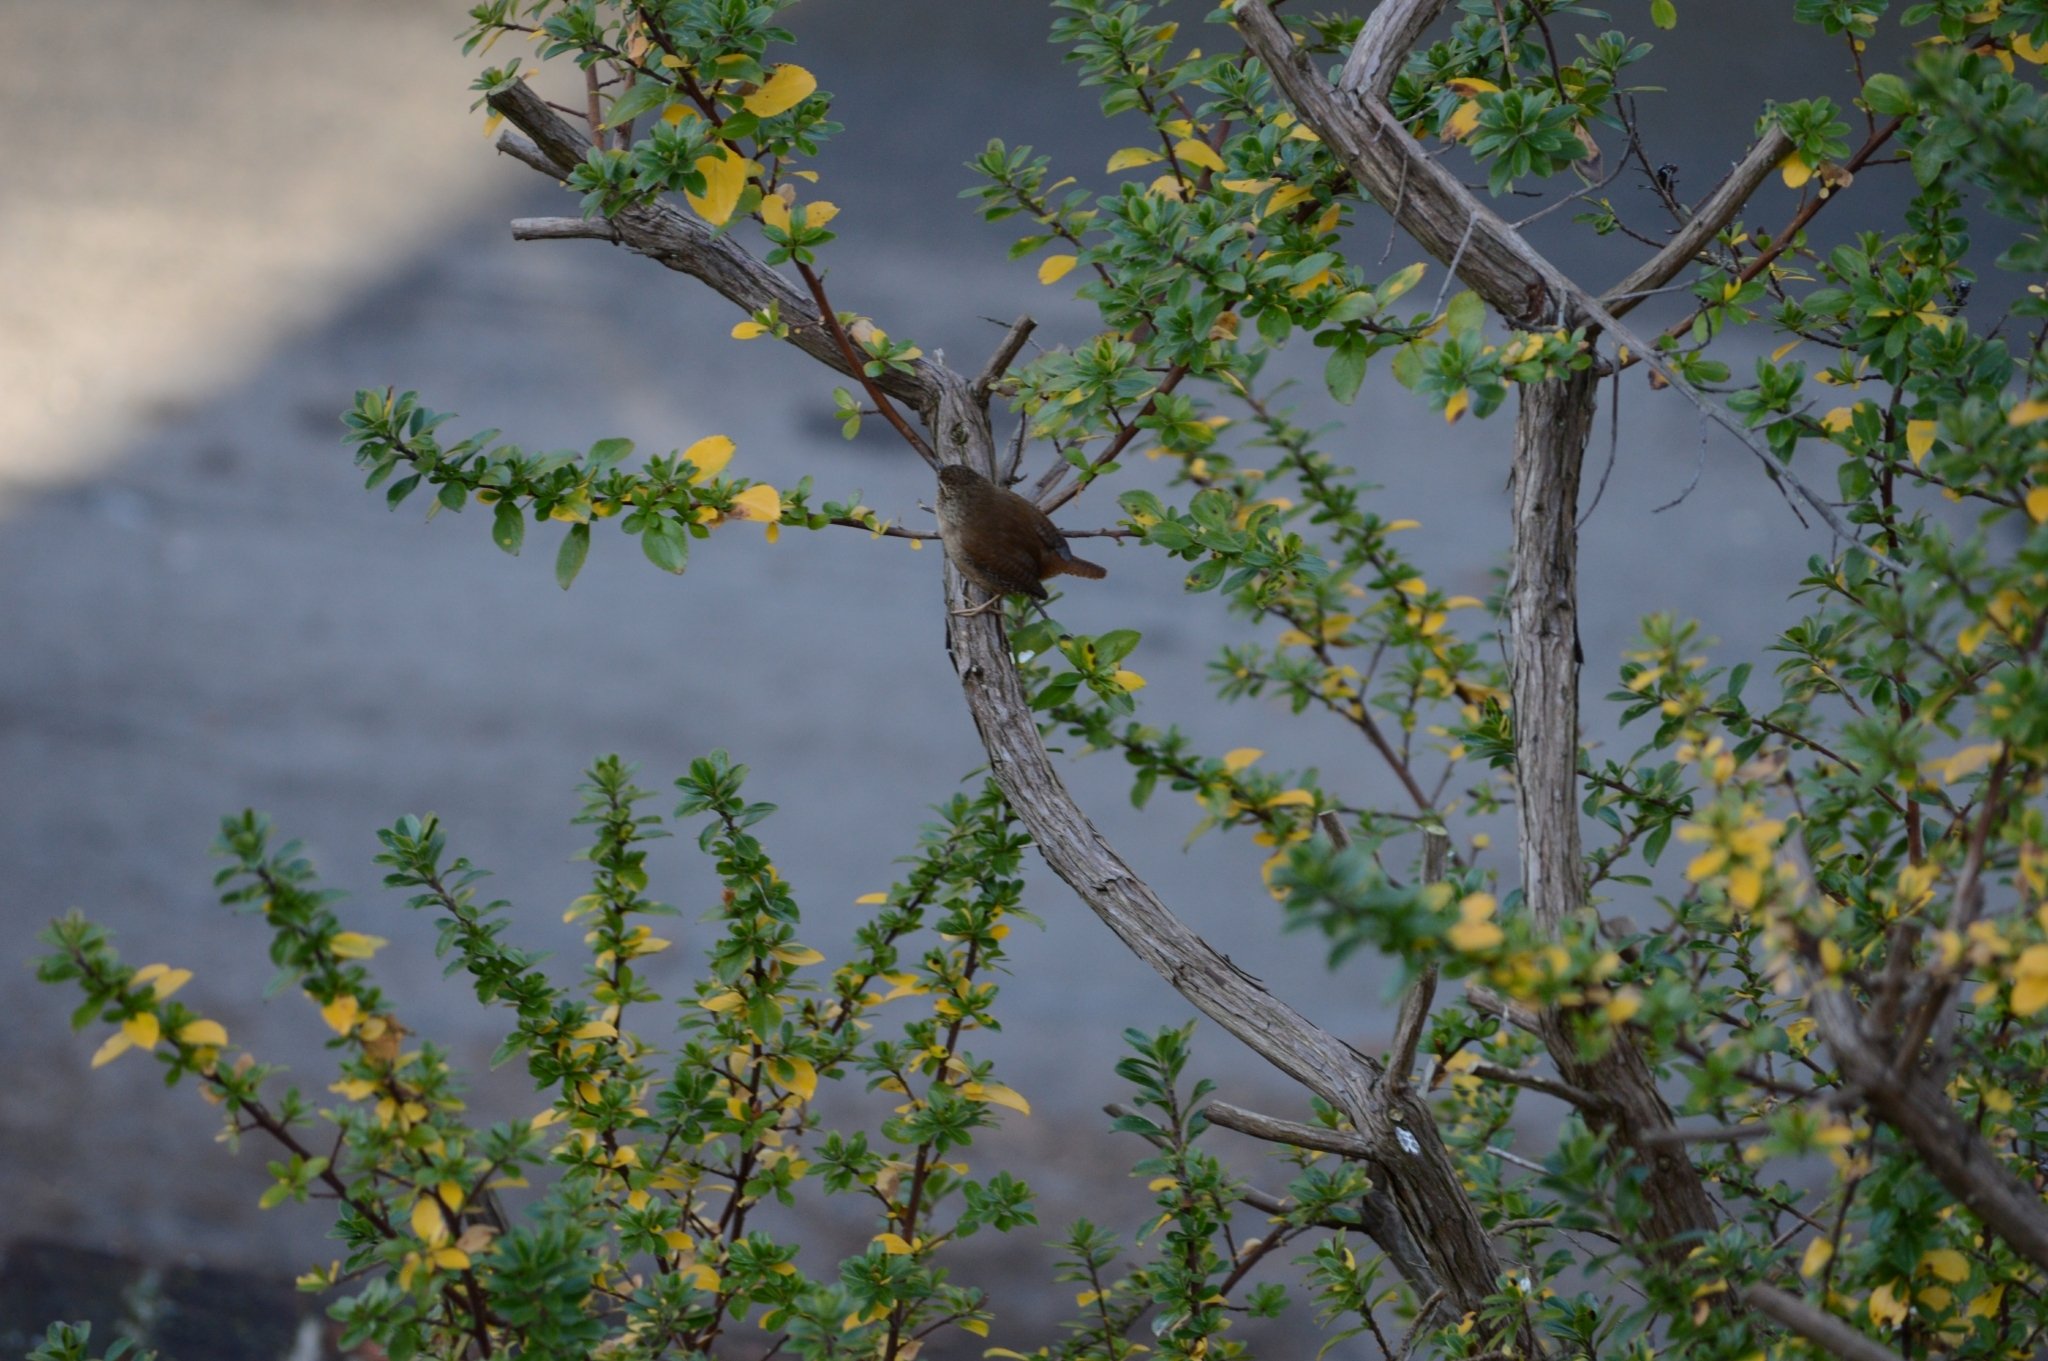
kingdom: Animalia
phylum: Chordata
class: Aves
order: Passeriformes
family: Troglodytidae
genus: Troglodytes
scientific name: Troglodytes troglodytes
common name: Eurasian wren
